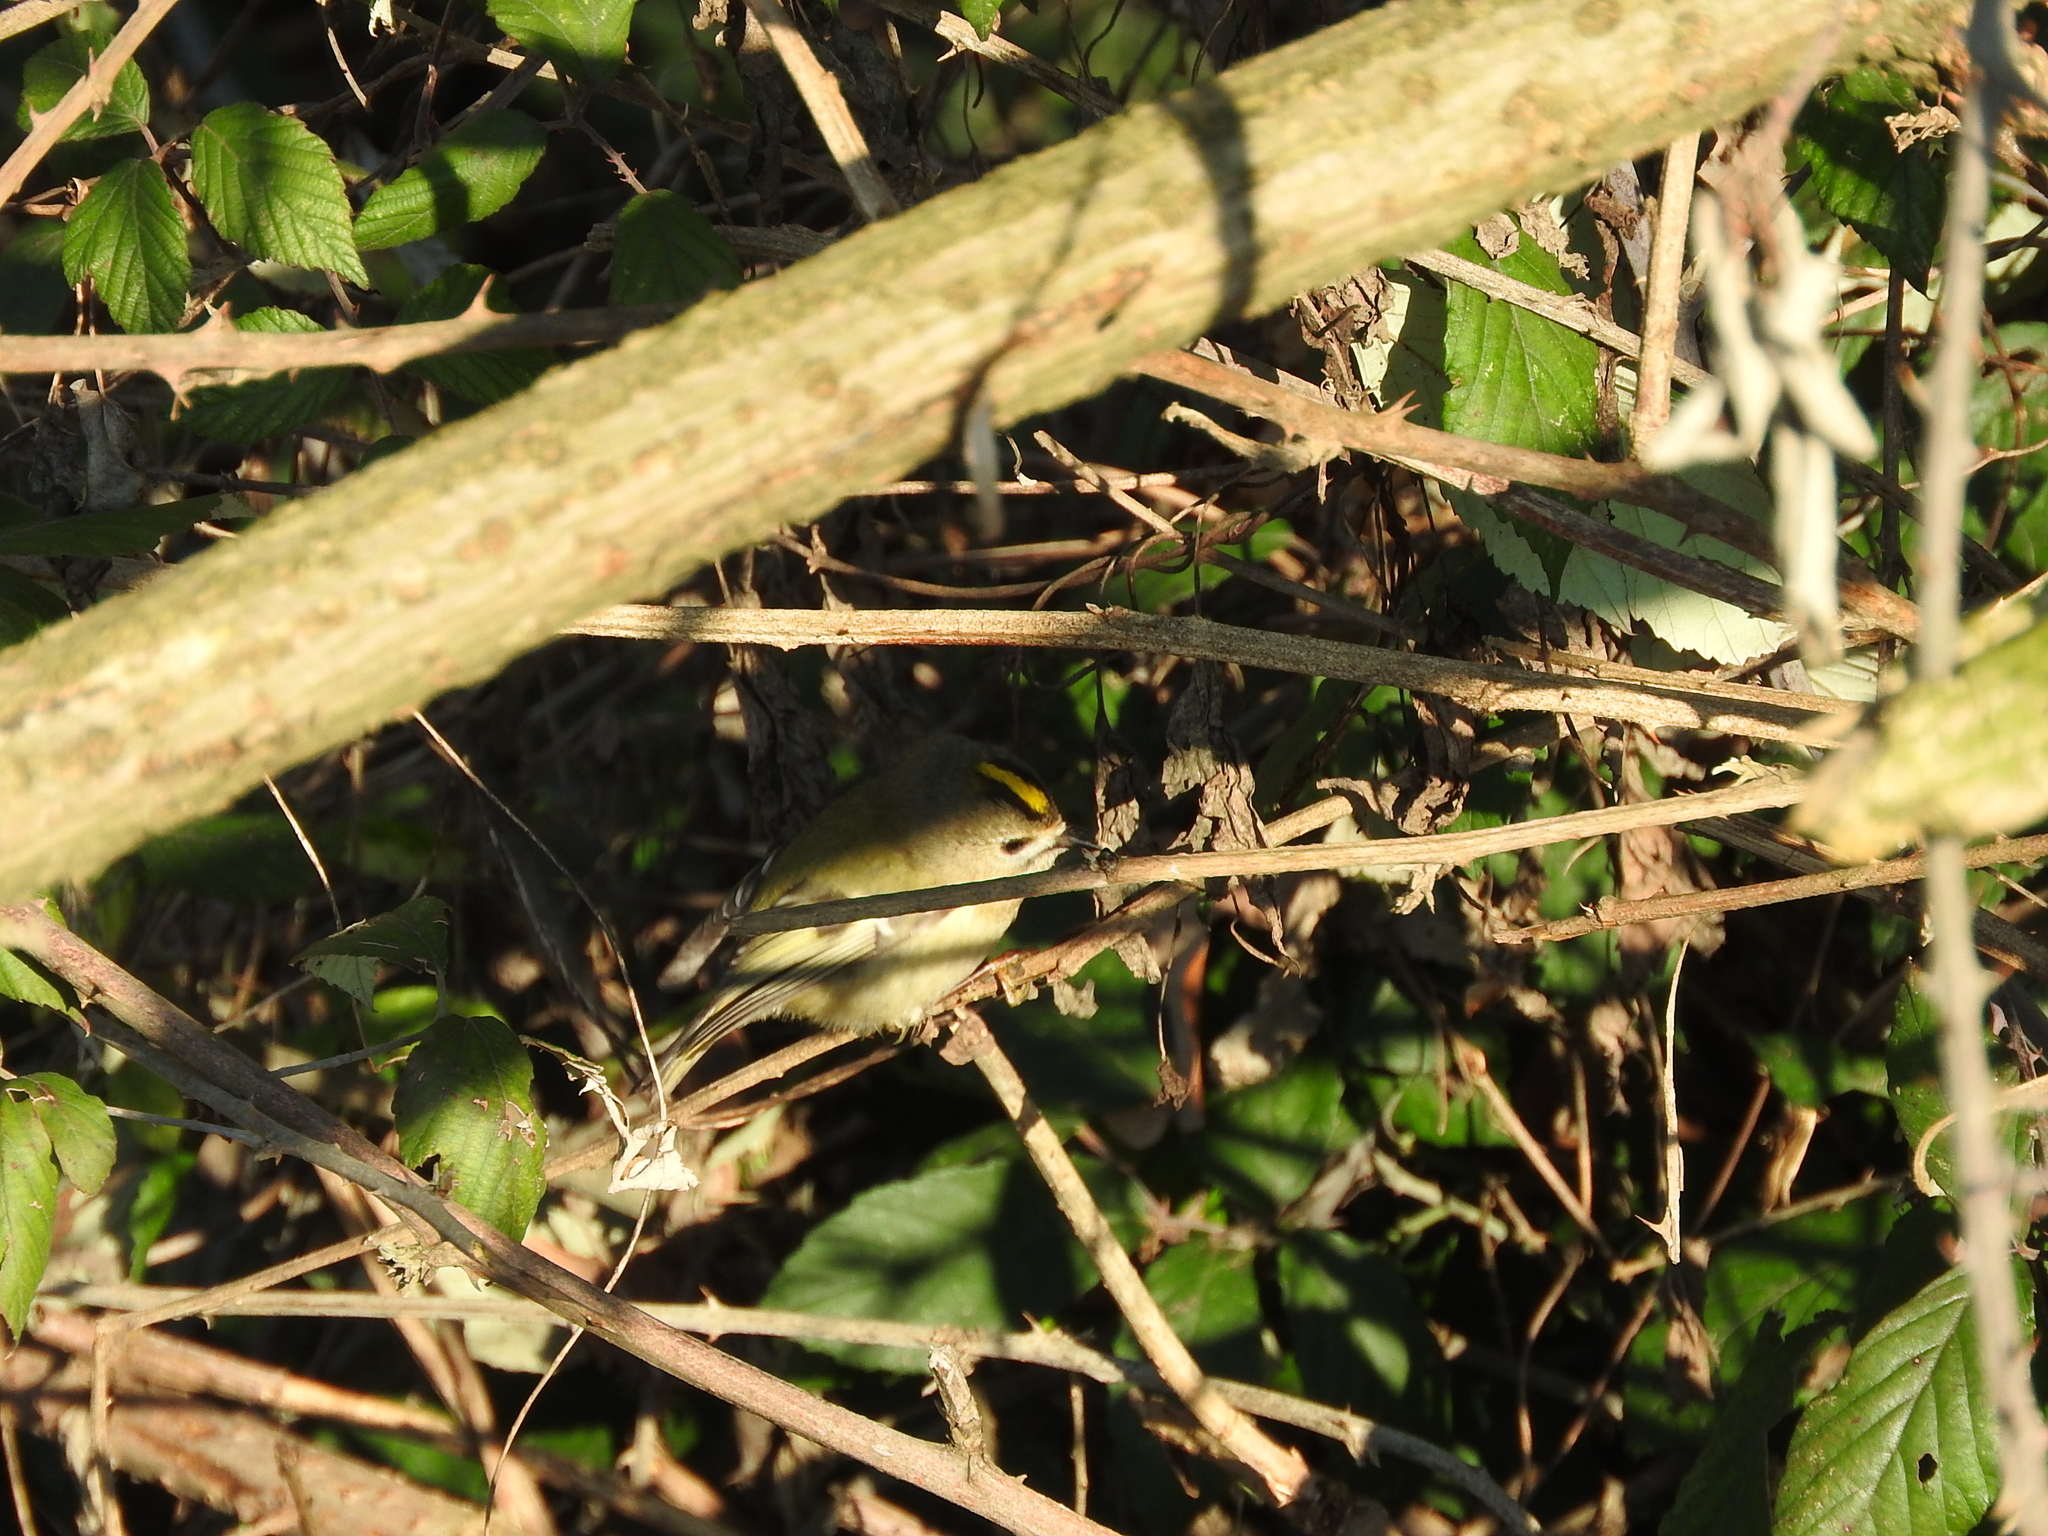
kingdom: Animalia
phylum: Chordata
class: Aves
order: Passeriformes
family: Regulidae
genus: Regulus
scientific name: Regulus regulus
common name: Goldcrest
